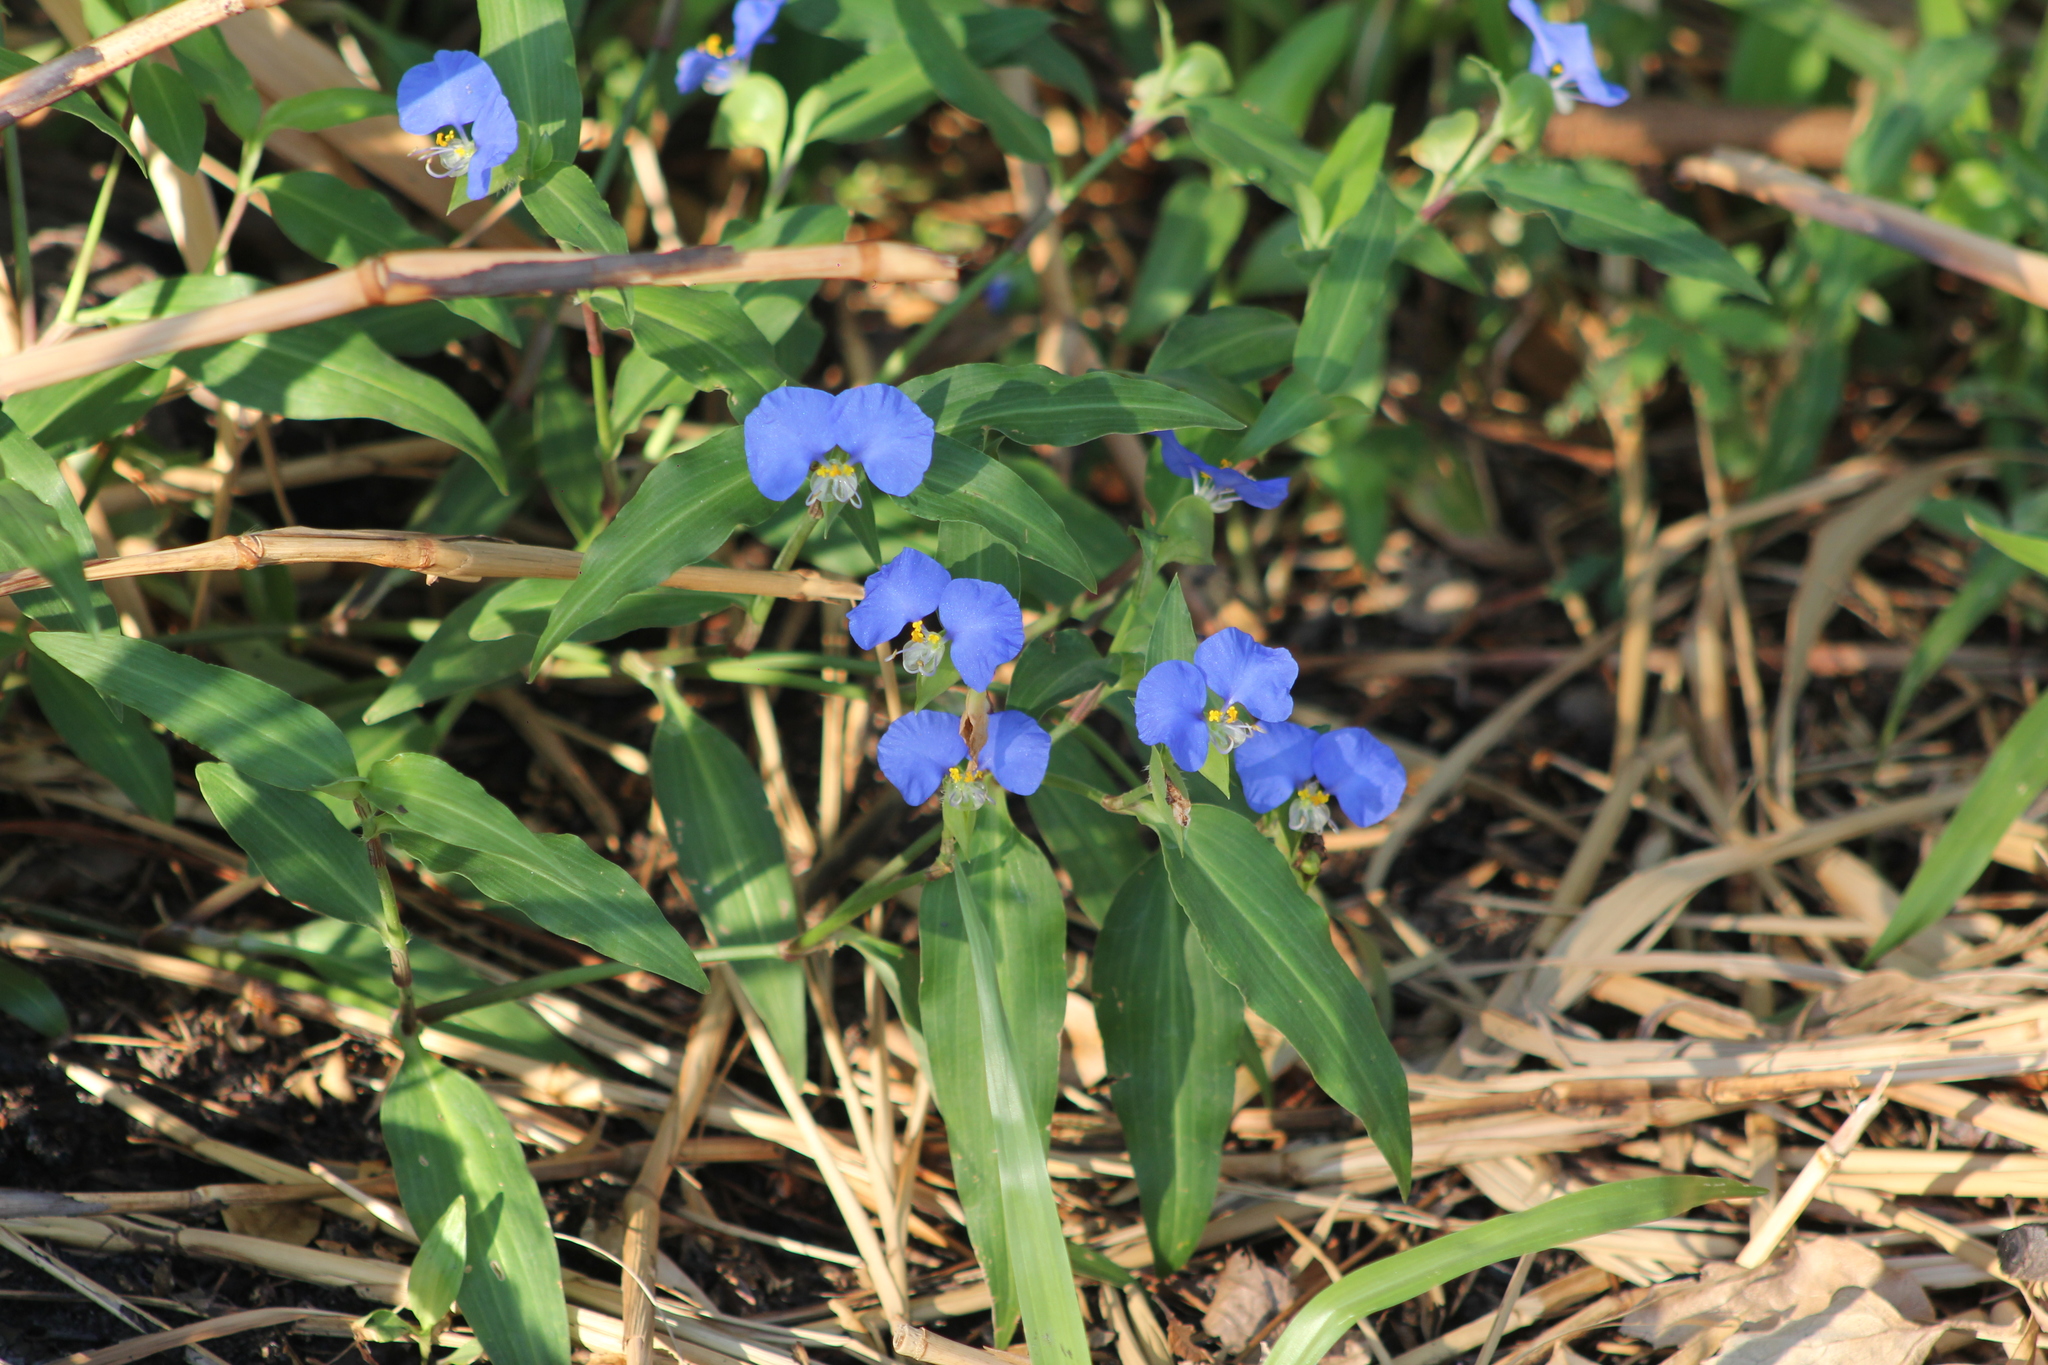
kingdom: Plantae
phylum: Tracheophyta
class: Liliopsida
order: Commelinales
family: Commelinaceae
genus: Commelina
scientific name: Commelina erecta
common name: Blousel blommetjie
